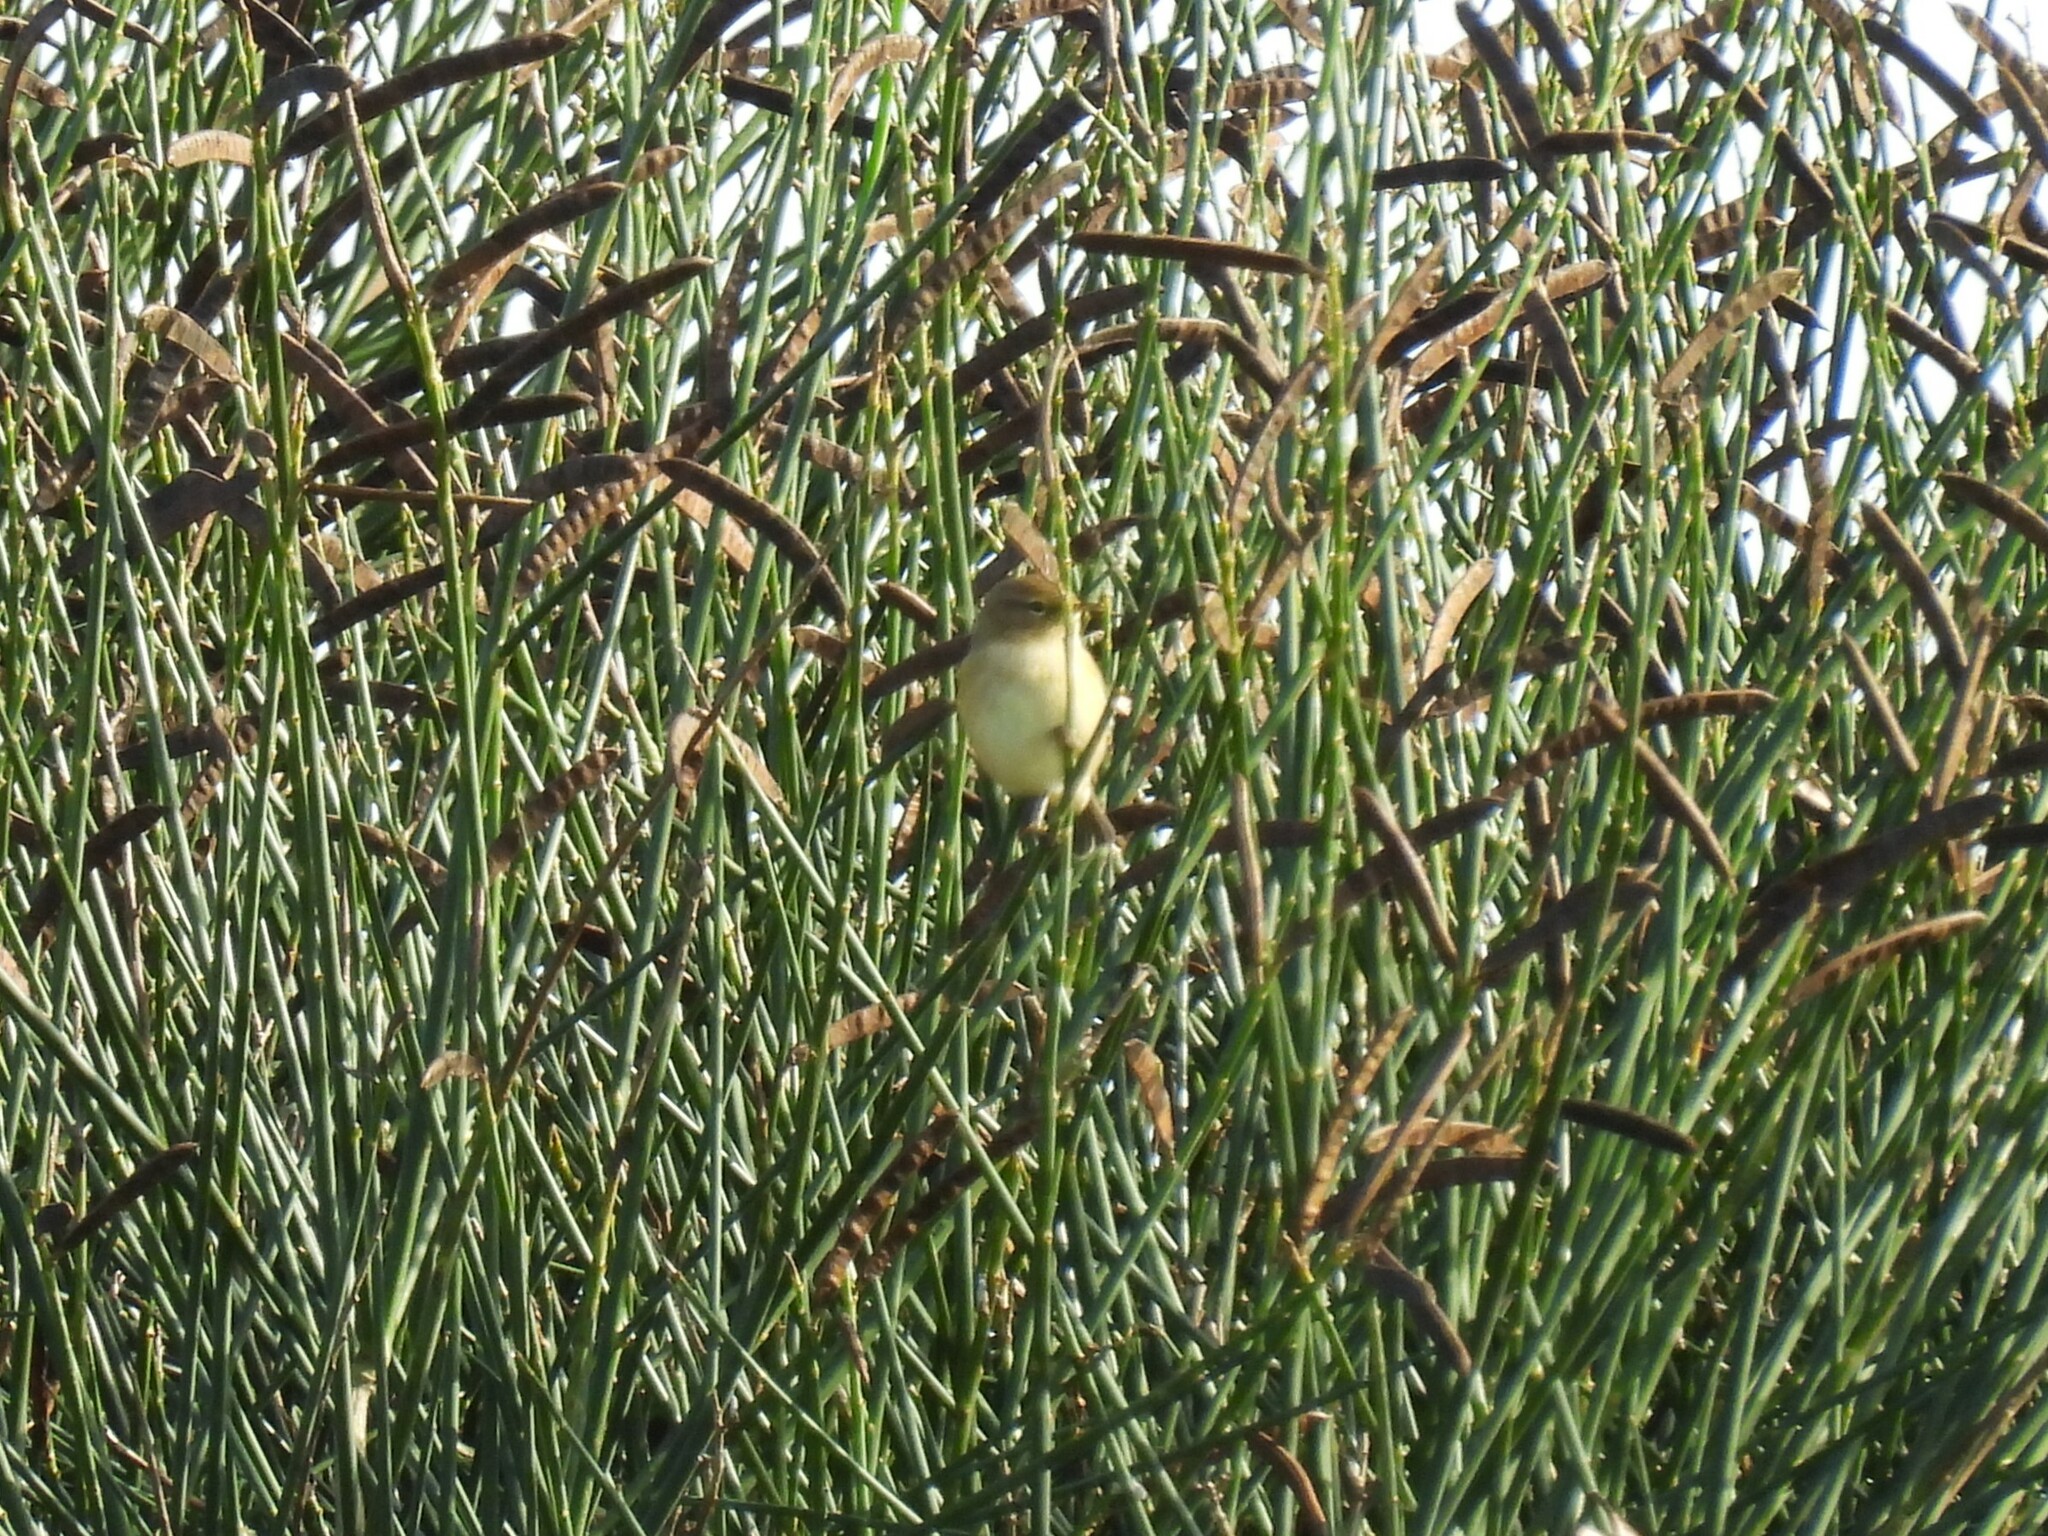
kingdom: Animalia
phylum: Chordata
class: Aves
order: Passeriformes
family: Phylloscopidae
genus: Phylloscopus
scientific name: Phylloscopus collybita
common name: Common chiffchaff
